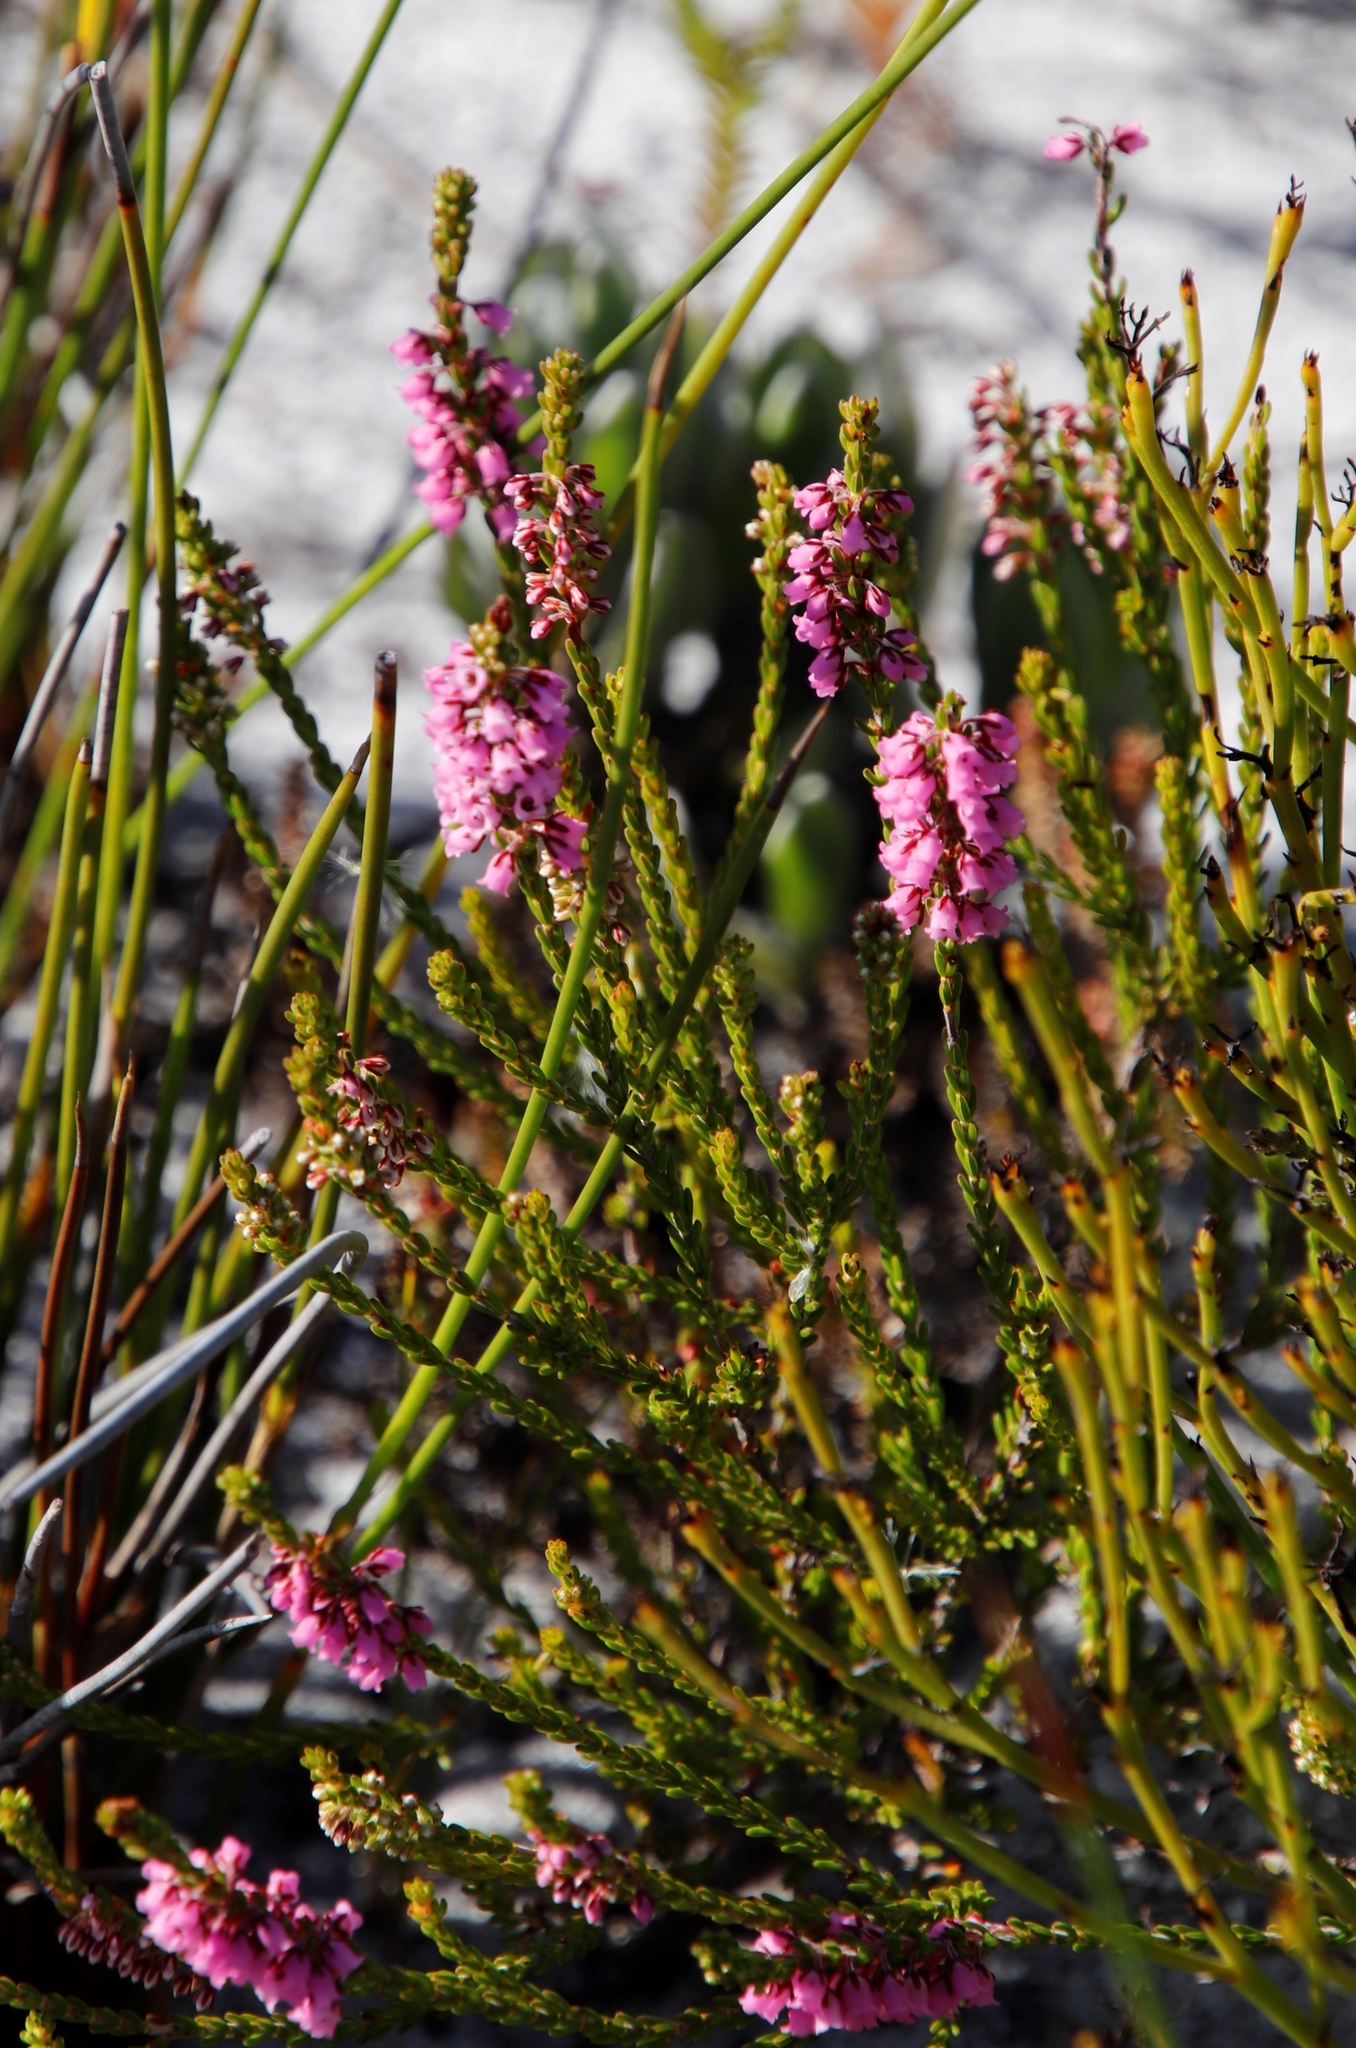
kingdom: Plantae
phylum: Tracheophyta
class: Magnoliopsida
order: Ericales
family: Ericaceae
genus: Erica
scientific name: Erica pulchella
